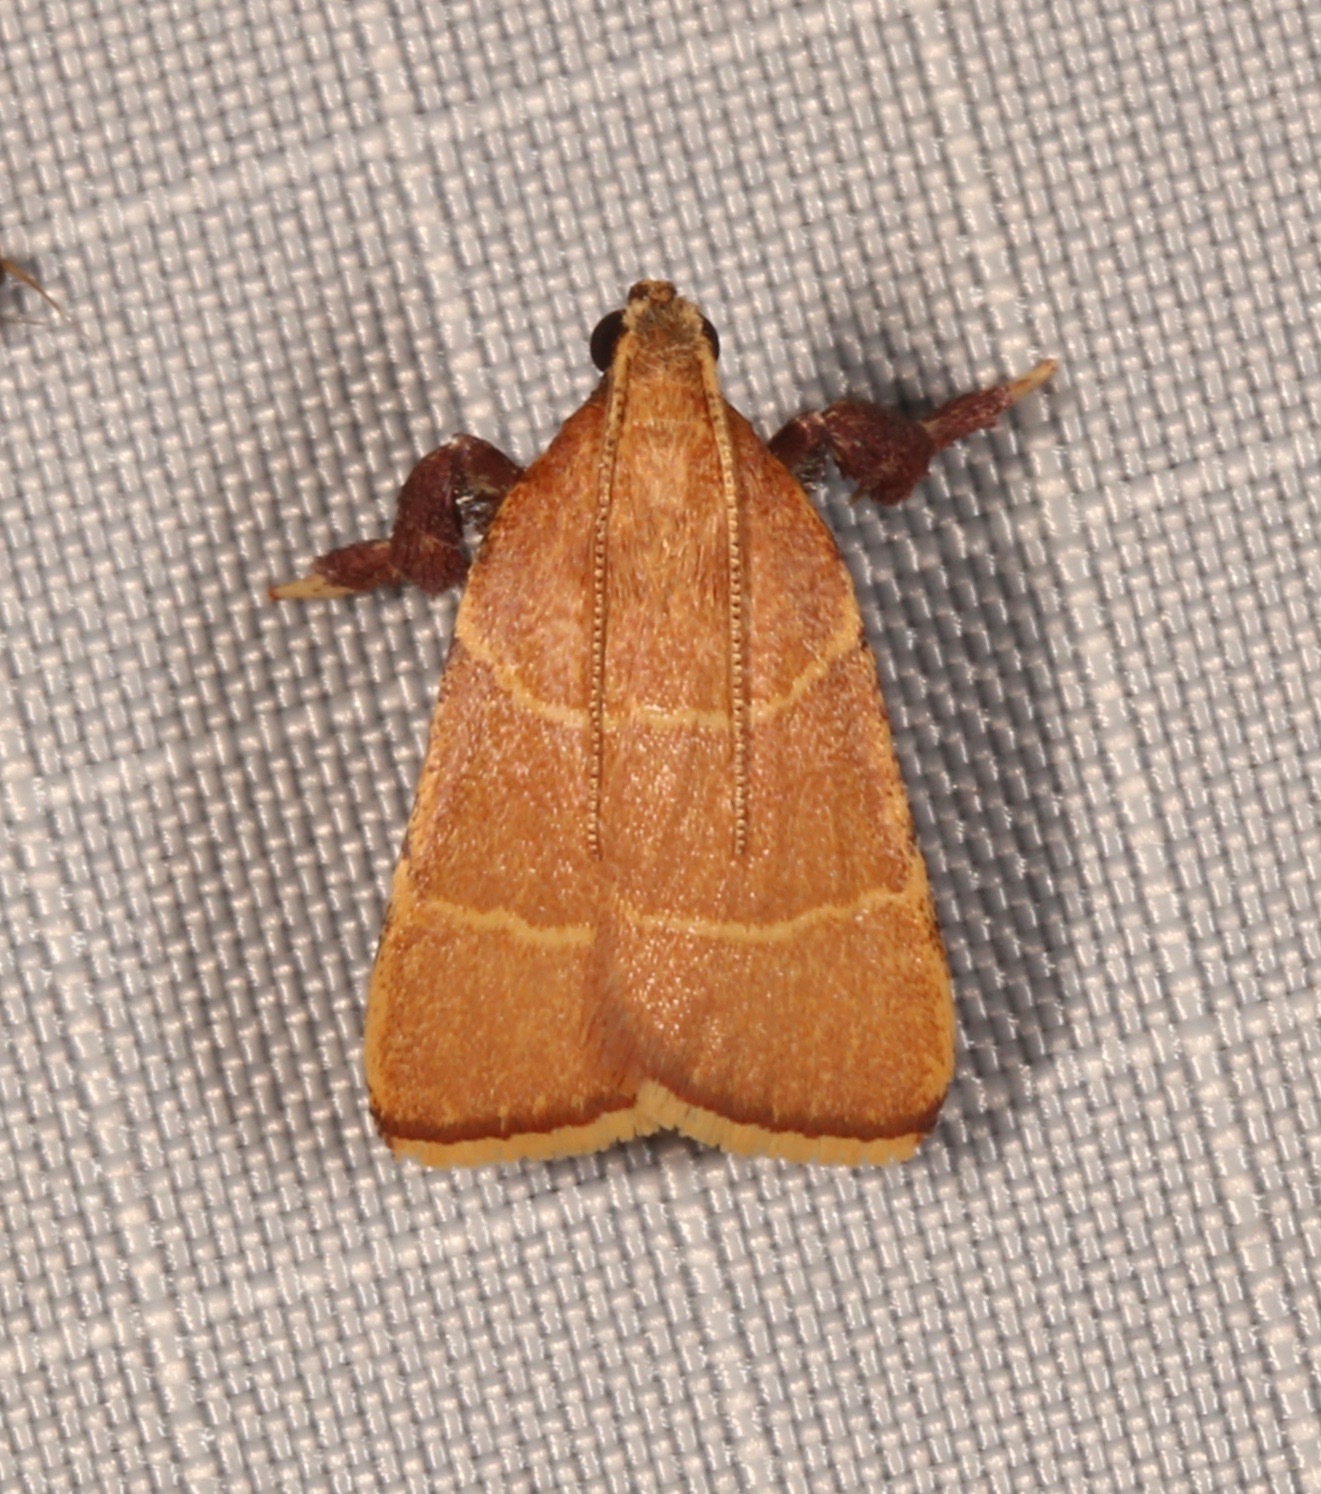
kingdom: Animalia
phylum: Arthropoda
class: Insecta
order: Lepidoptera
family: Pyralidae
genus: Parachma
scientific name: Parachma ochracealis
